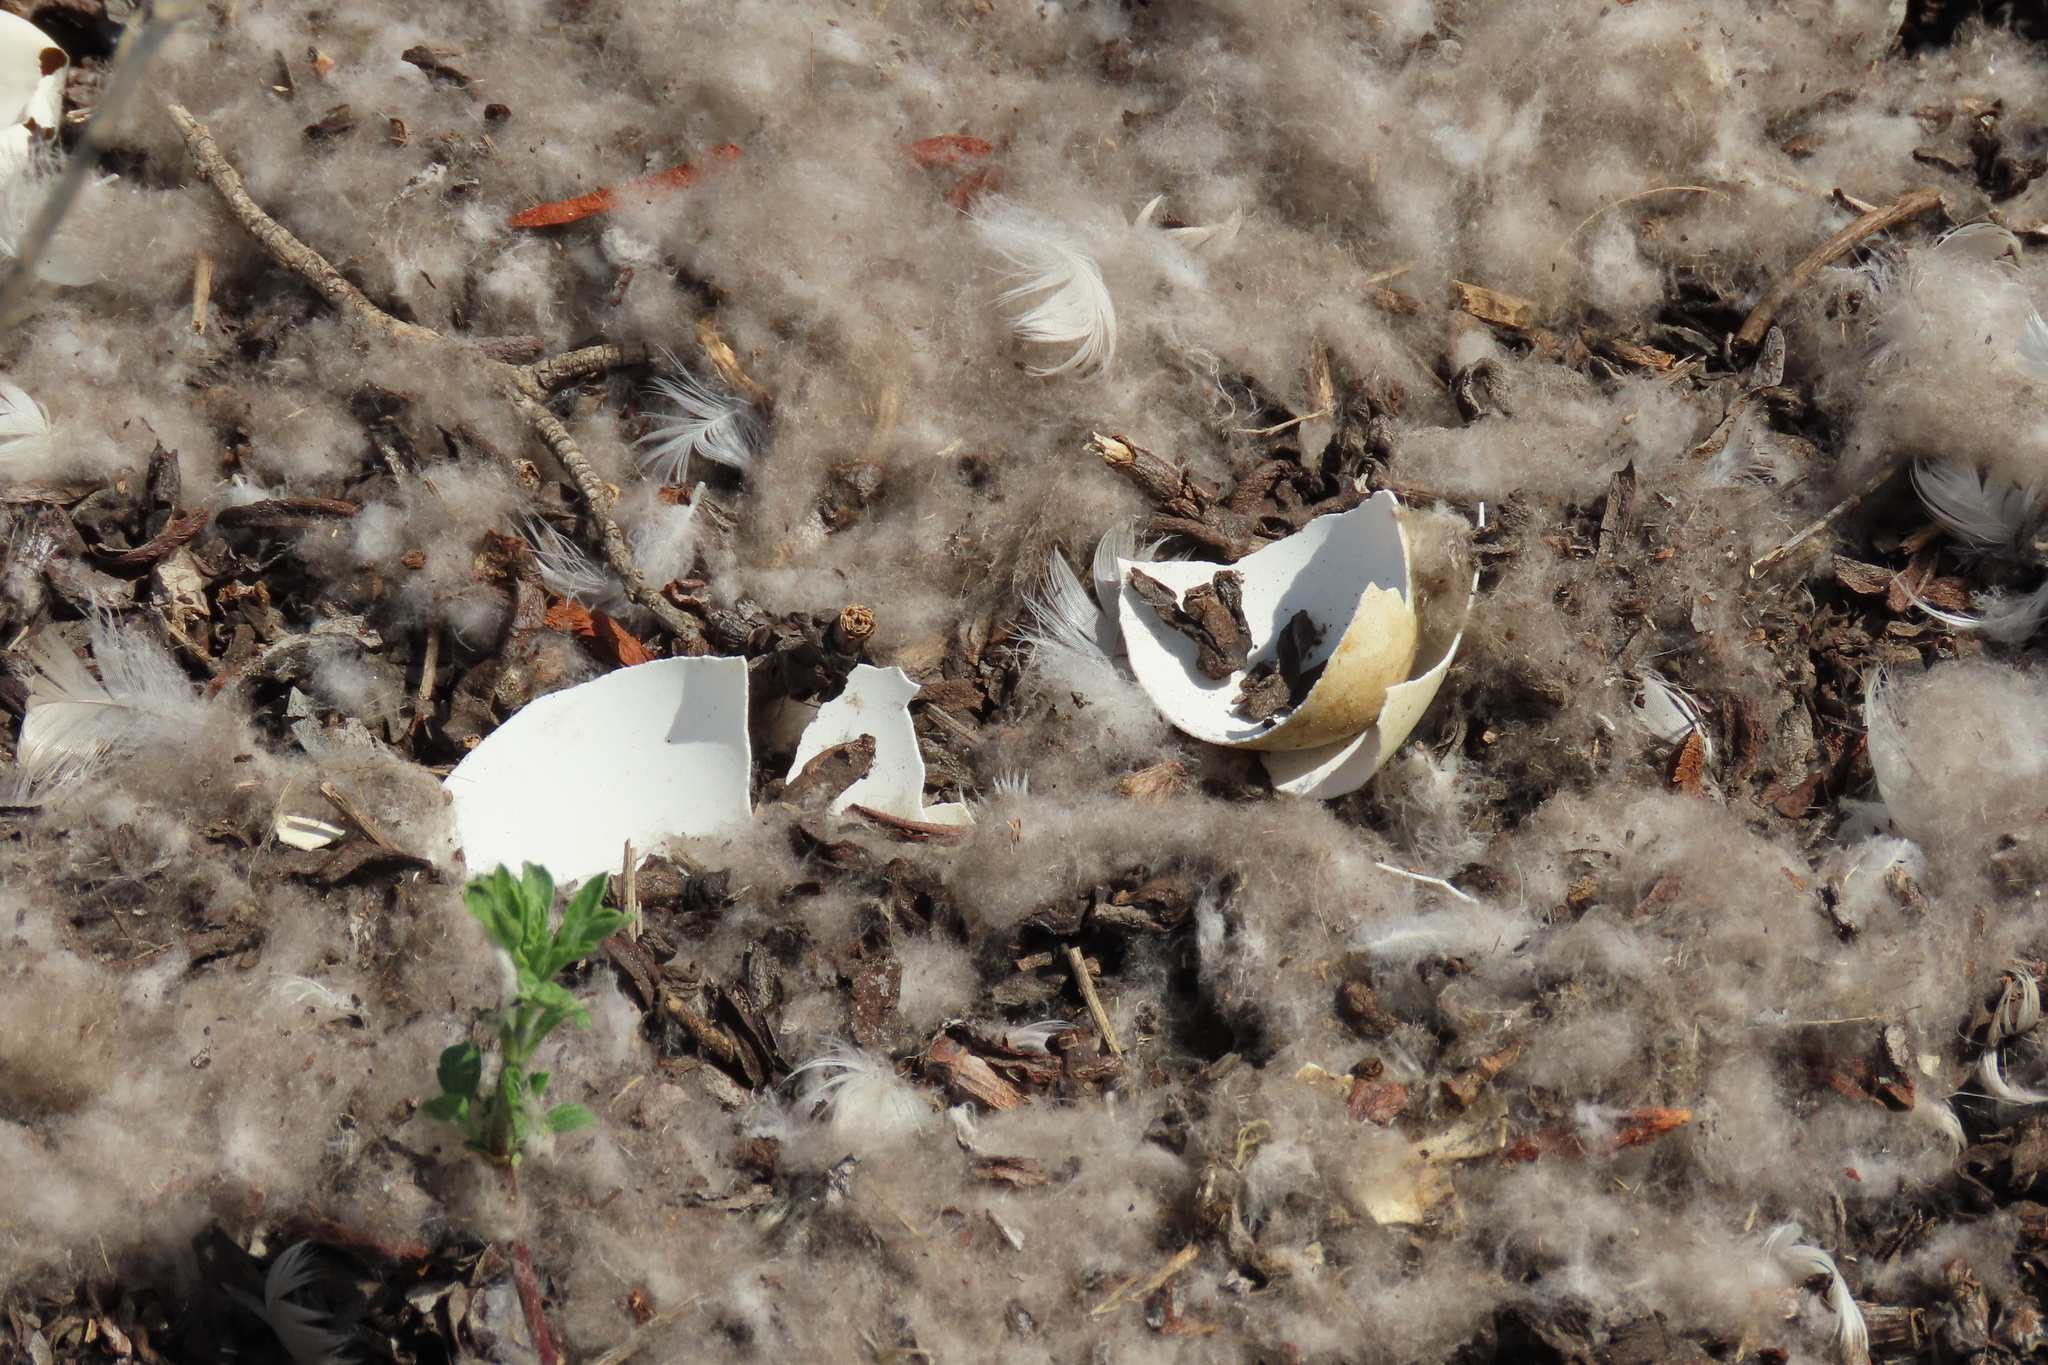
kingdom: Animalia
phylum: Chordata
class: Aves
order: Anseriformes
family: Anatidae
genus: Branta
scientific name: Branta canadensis
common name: Canada goose
